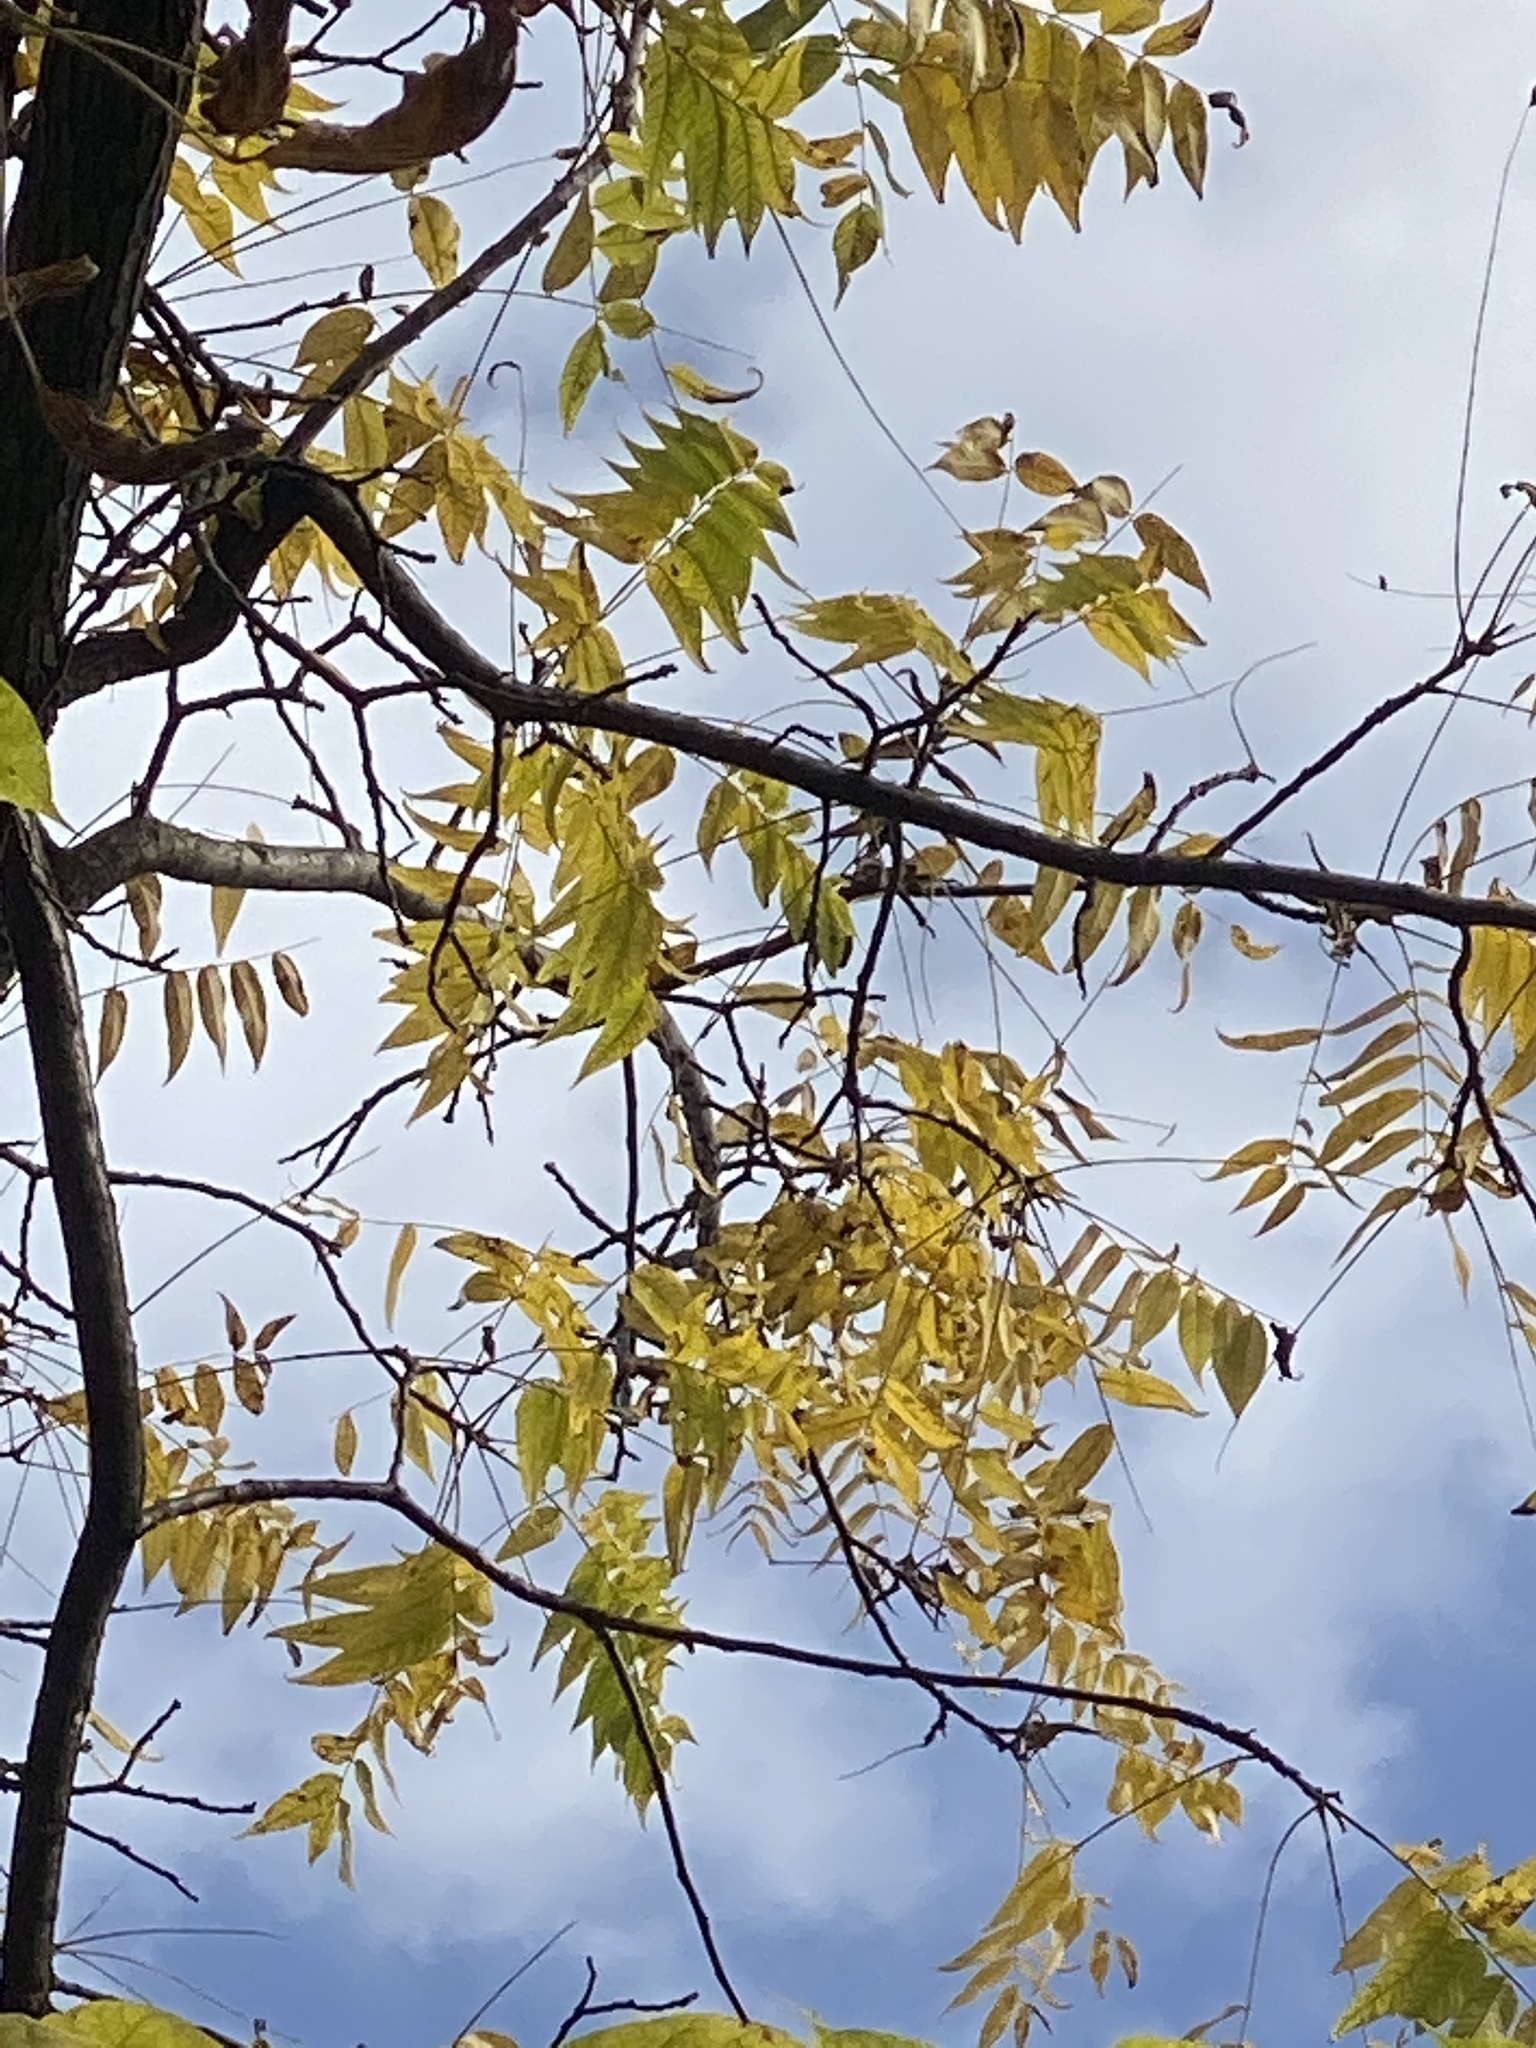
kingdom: Plantae
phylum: Tracheophyta
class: Magnoliopsida
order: Fagales
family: Juglandaceae
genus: Juglans
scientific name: Juglans nigra
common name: Black walnut
